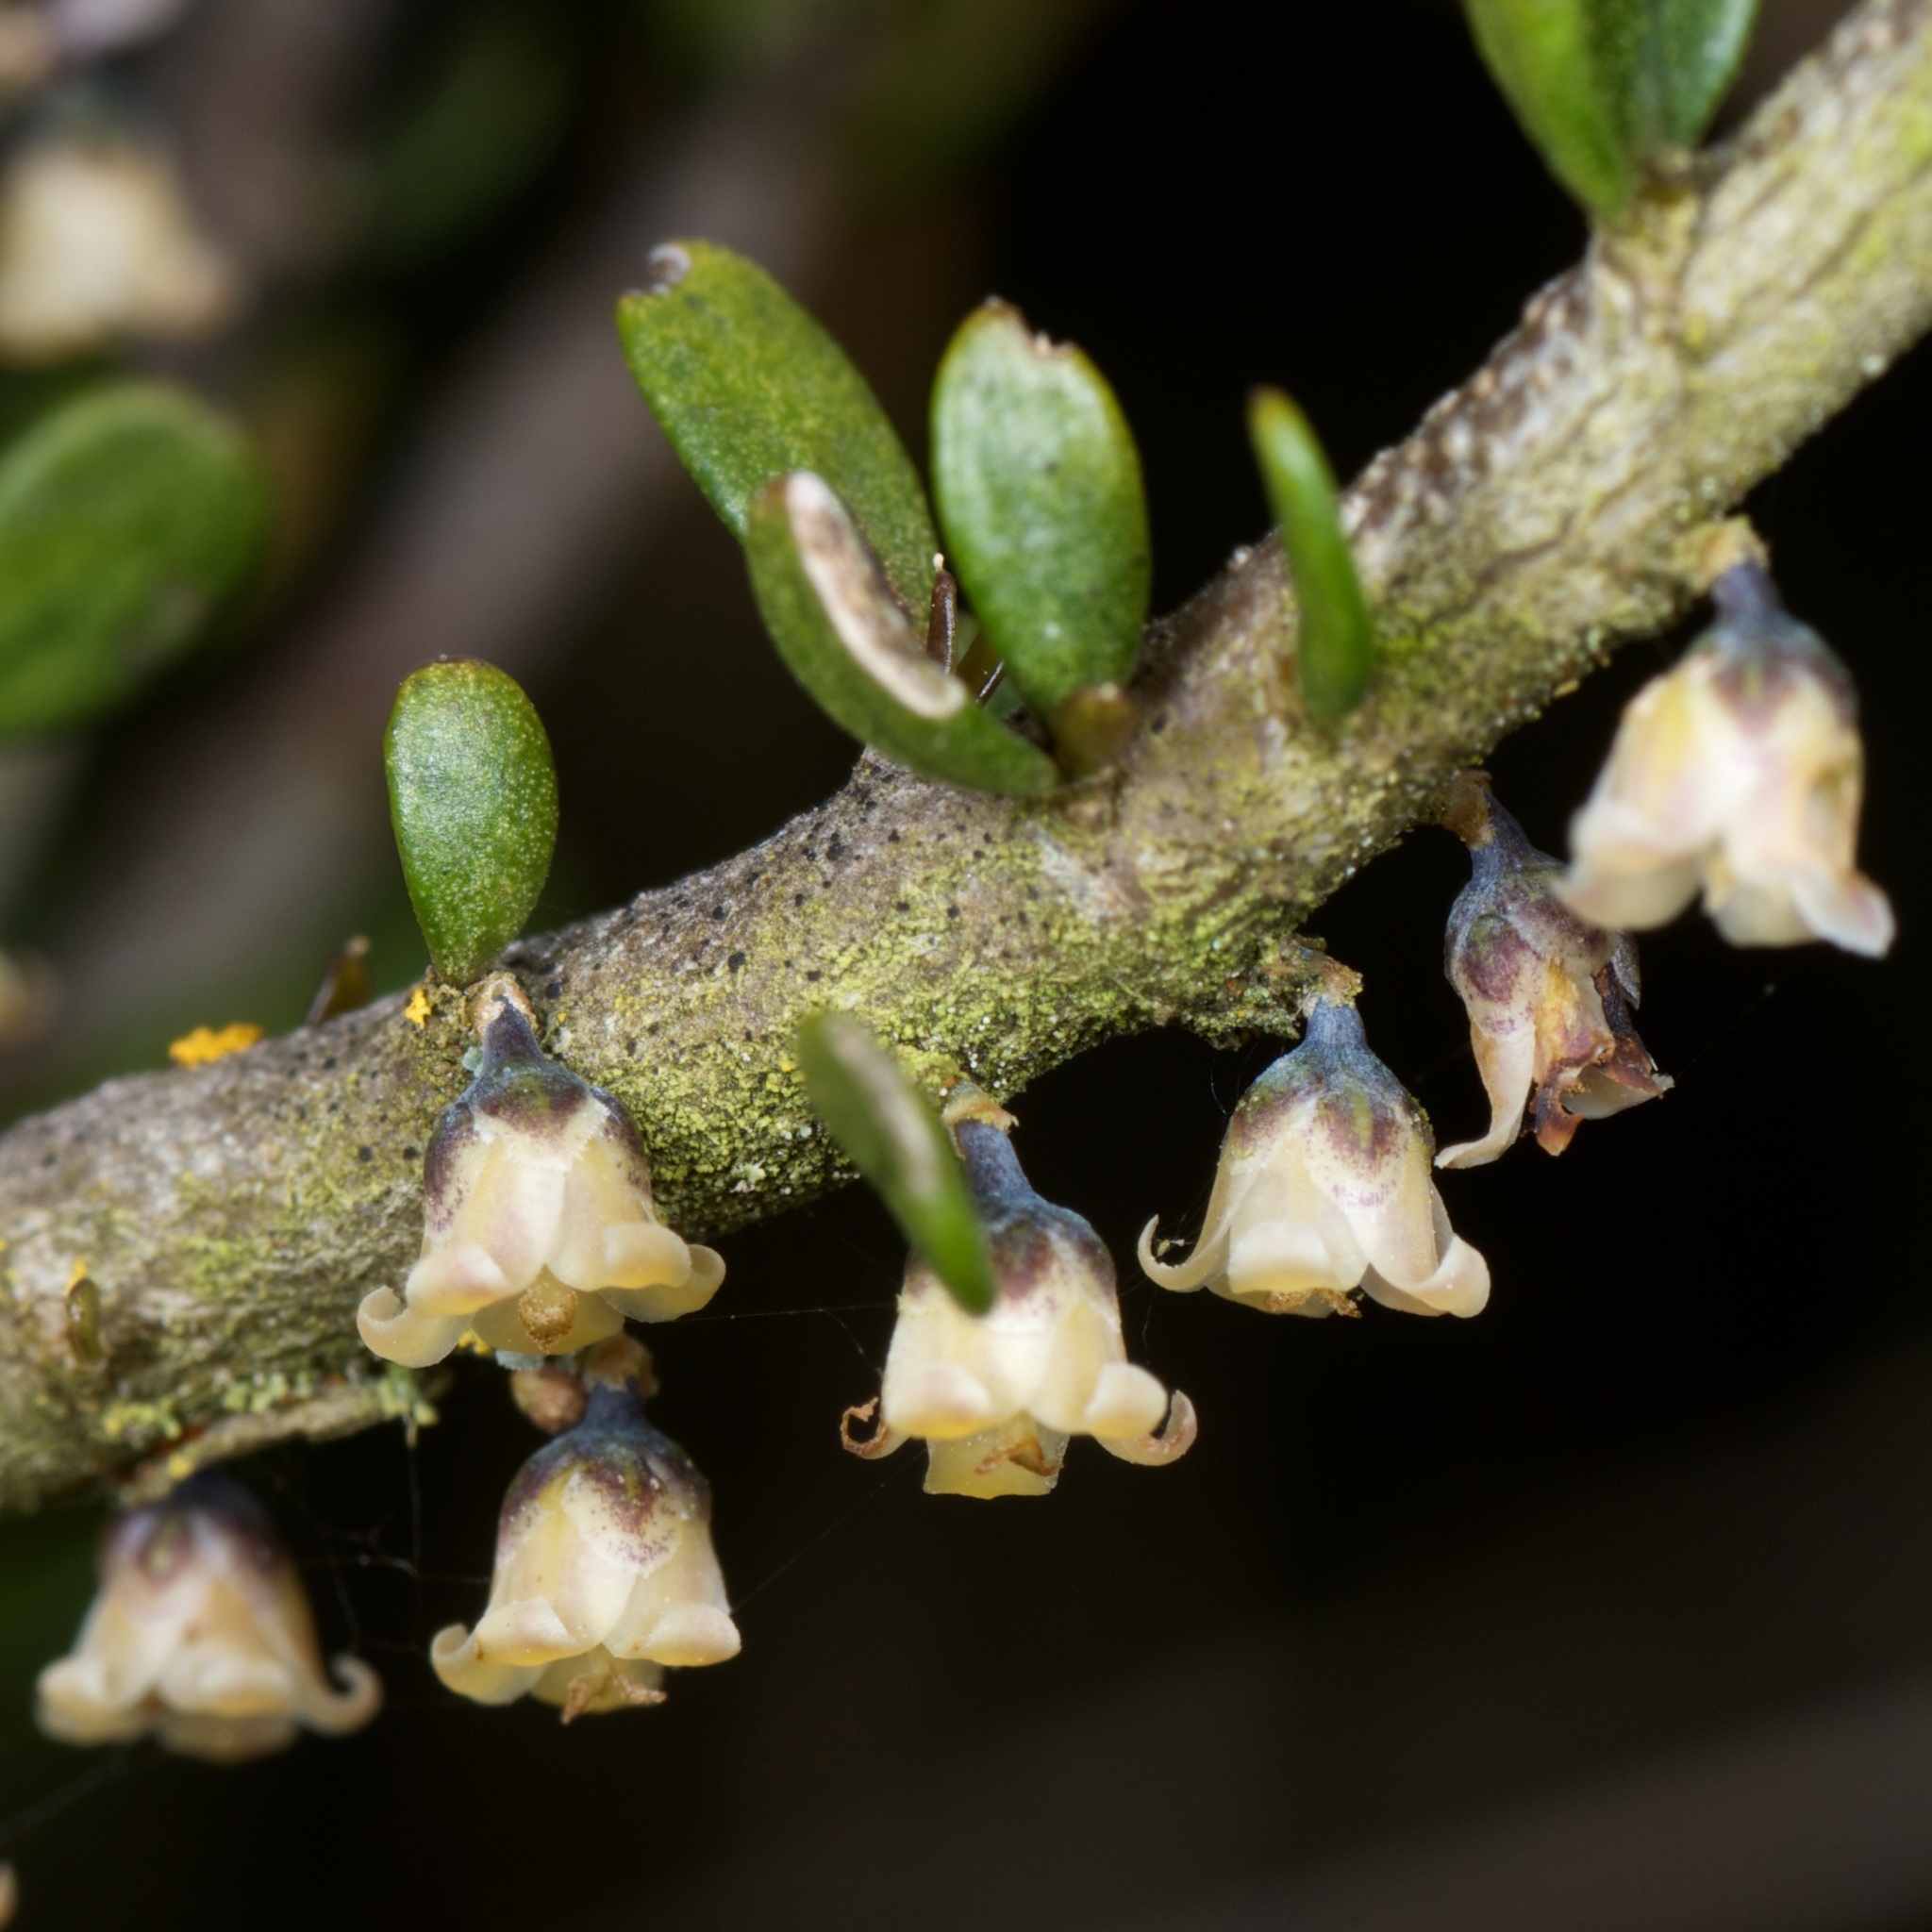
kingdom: Plantae
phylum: Tracheophyta
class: Magnoliopsida
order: Malpighiales
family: Violaceae
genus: Melicytus
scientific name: Melicytus alpinus
